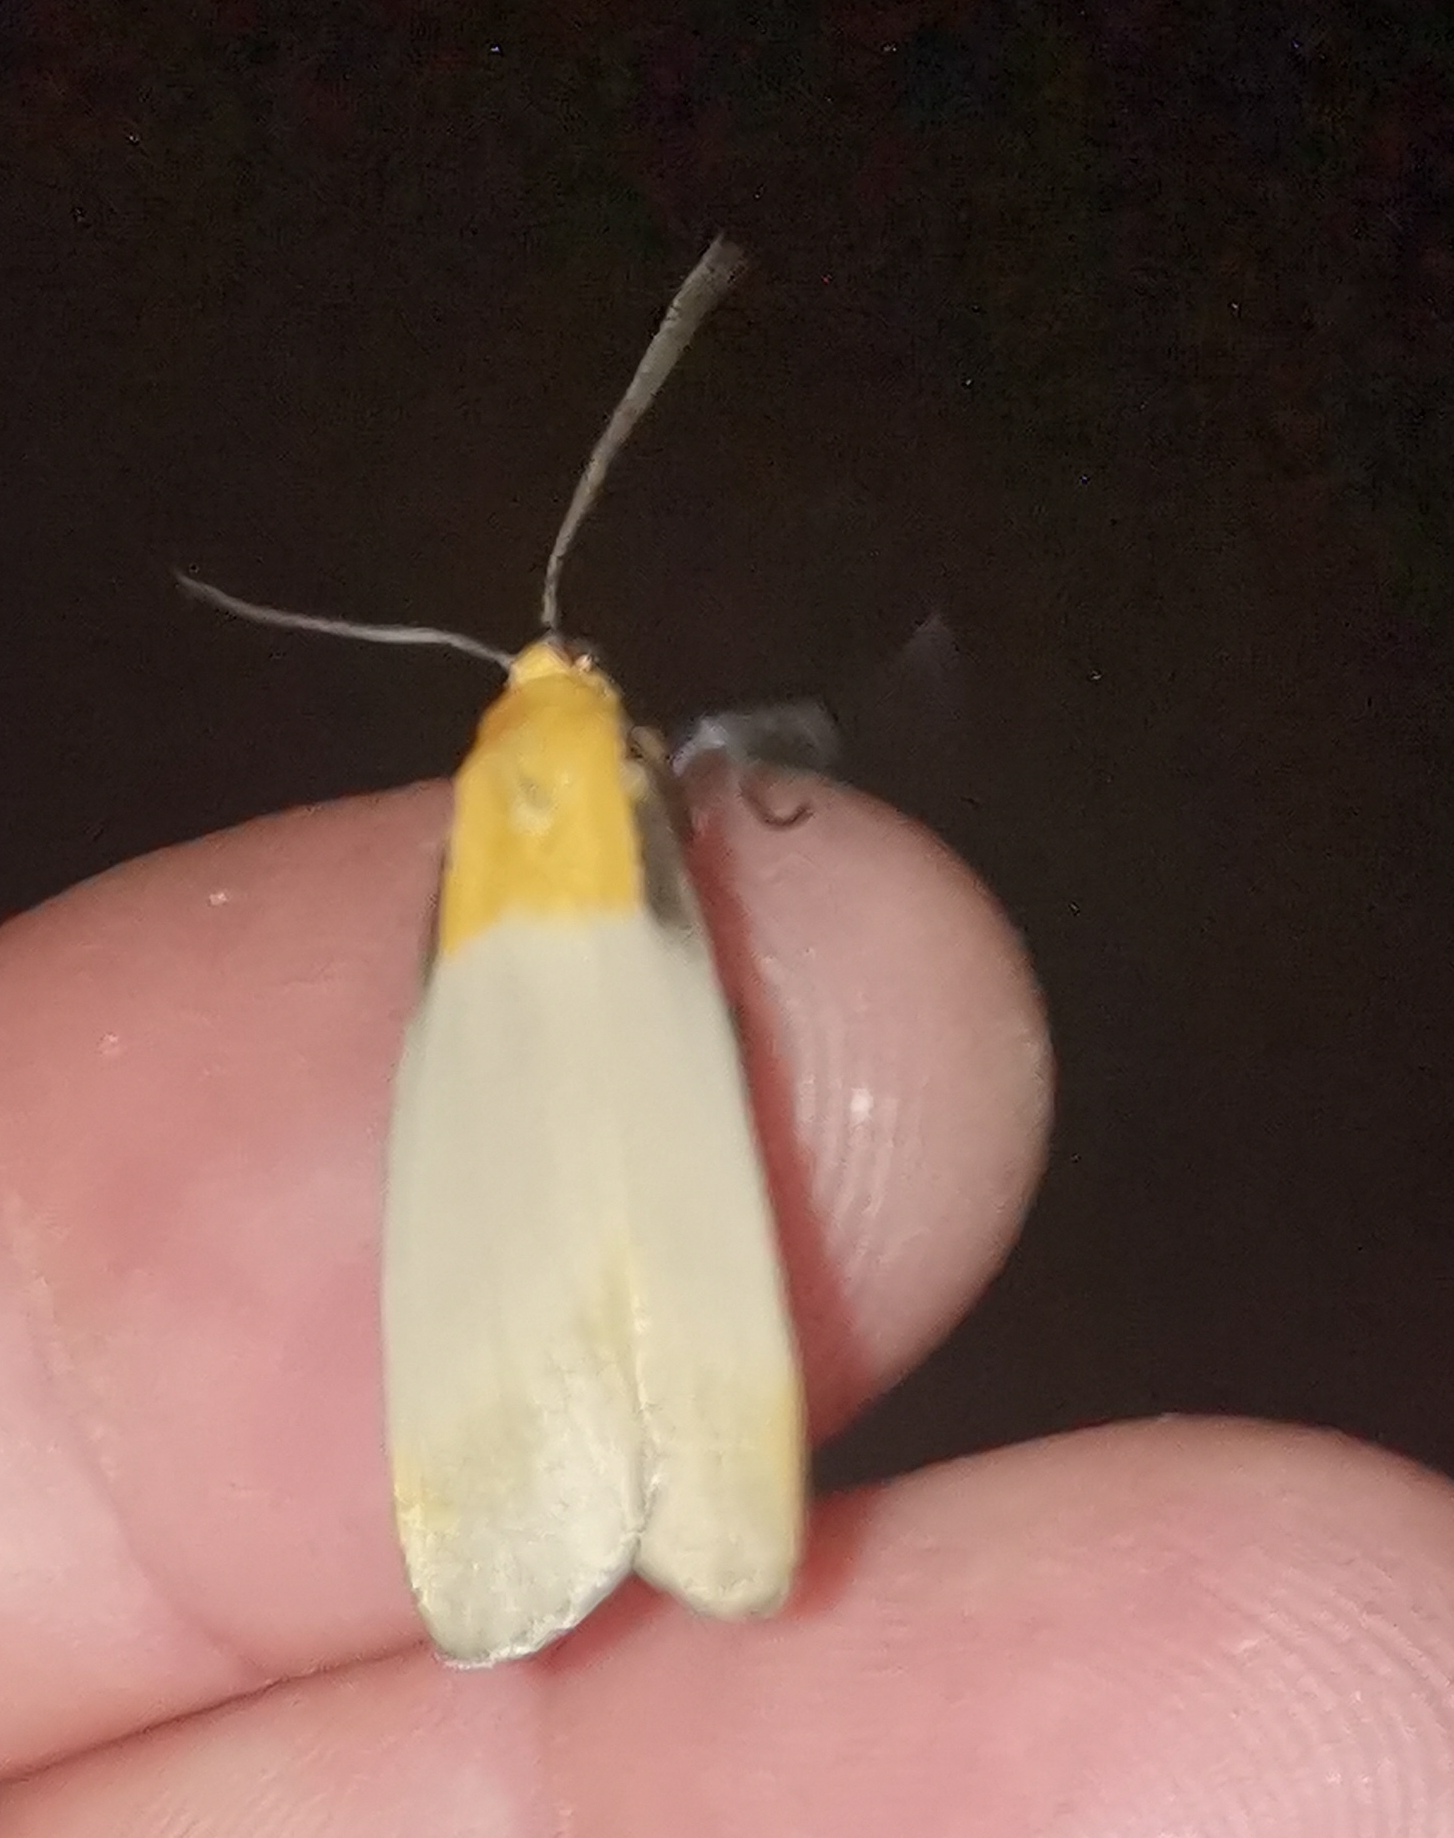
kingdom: Animalia
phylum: Arthropoda
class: Insecta
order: Lepidoptera
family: Erebidae
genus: Lithosia
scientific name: Lithosia quadra
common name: Four-spotted footman
